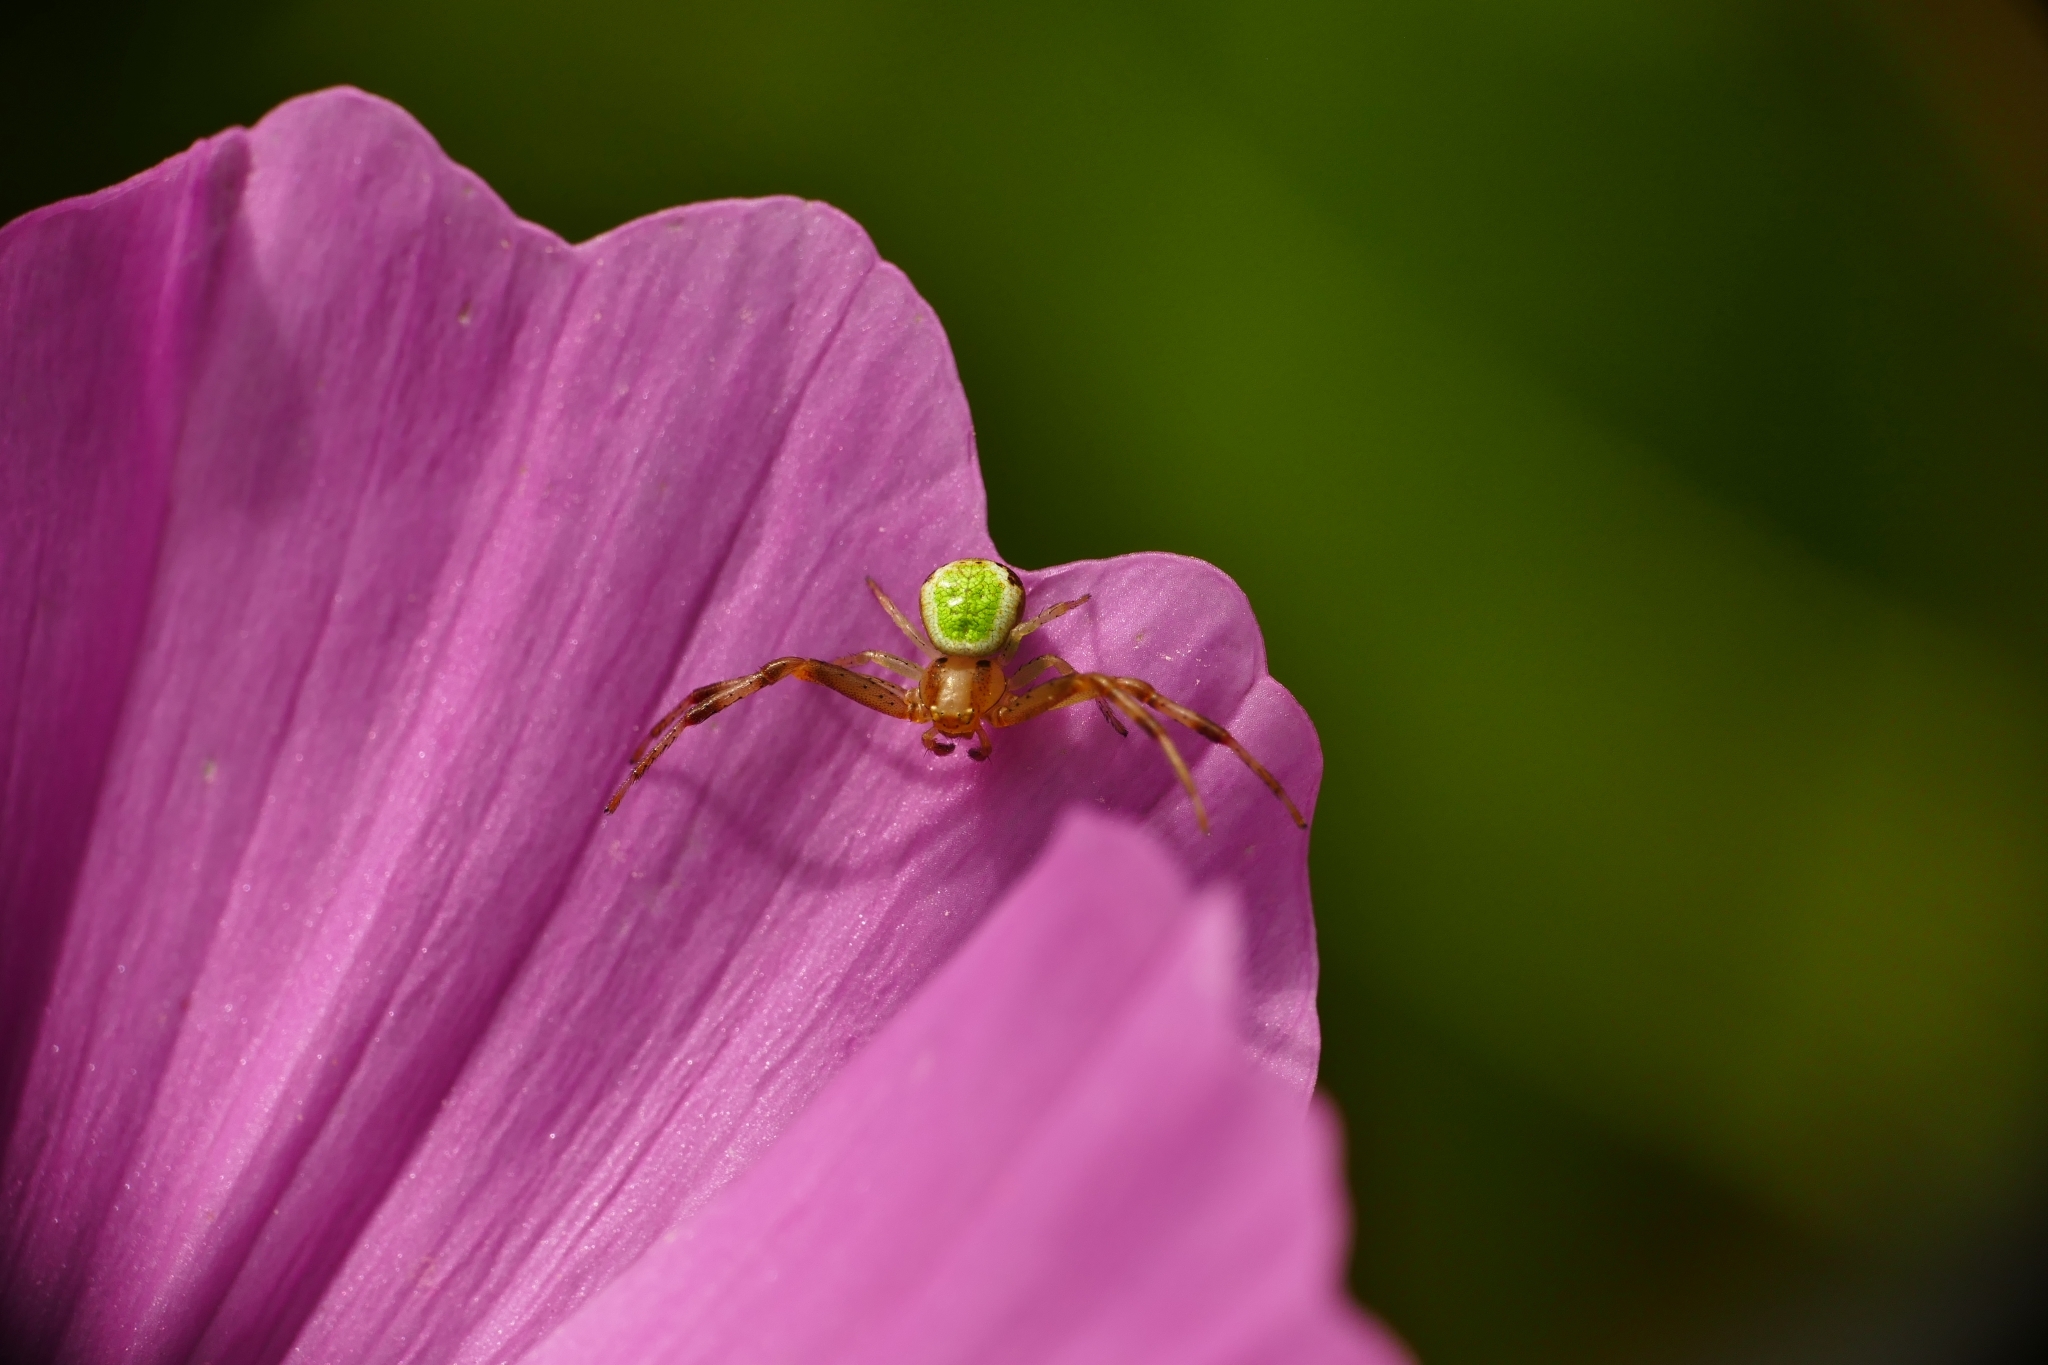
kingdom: Animalia
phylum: Arthropoda
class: Arachnida
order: Araneae
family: Thomisidae
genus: Ebrechtella
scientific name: Ebrechtella tricuspidata
